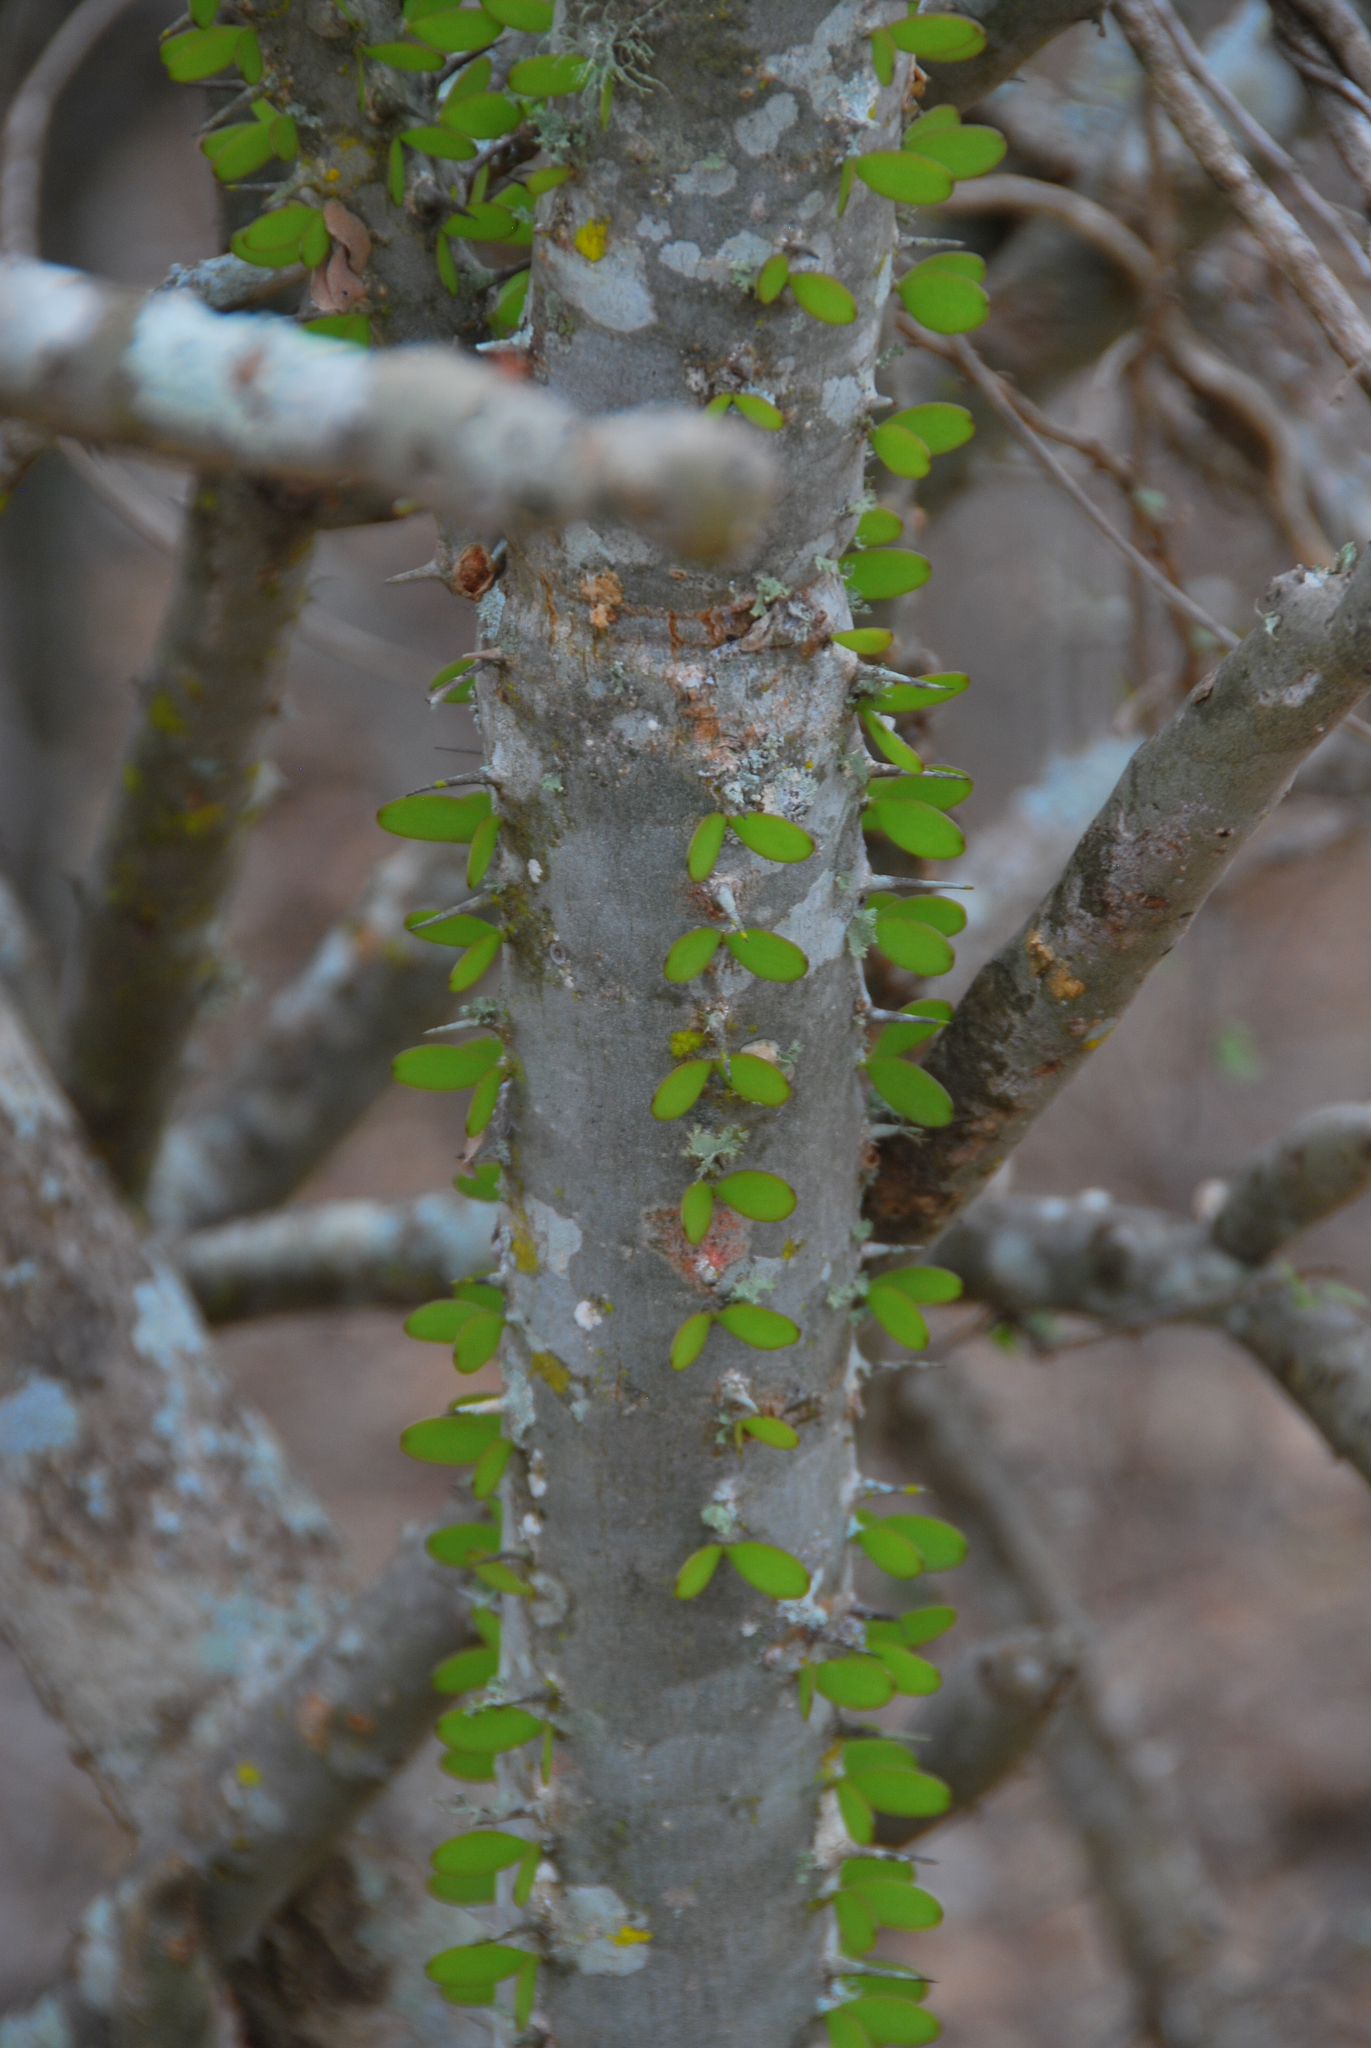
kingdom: Plantae
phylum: Tracheophyta
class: Magnoliopsida
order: Caryophyllales
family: Didiereaceae
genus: Alluaudia
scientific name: Alluaudia procera
